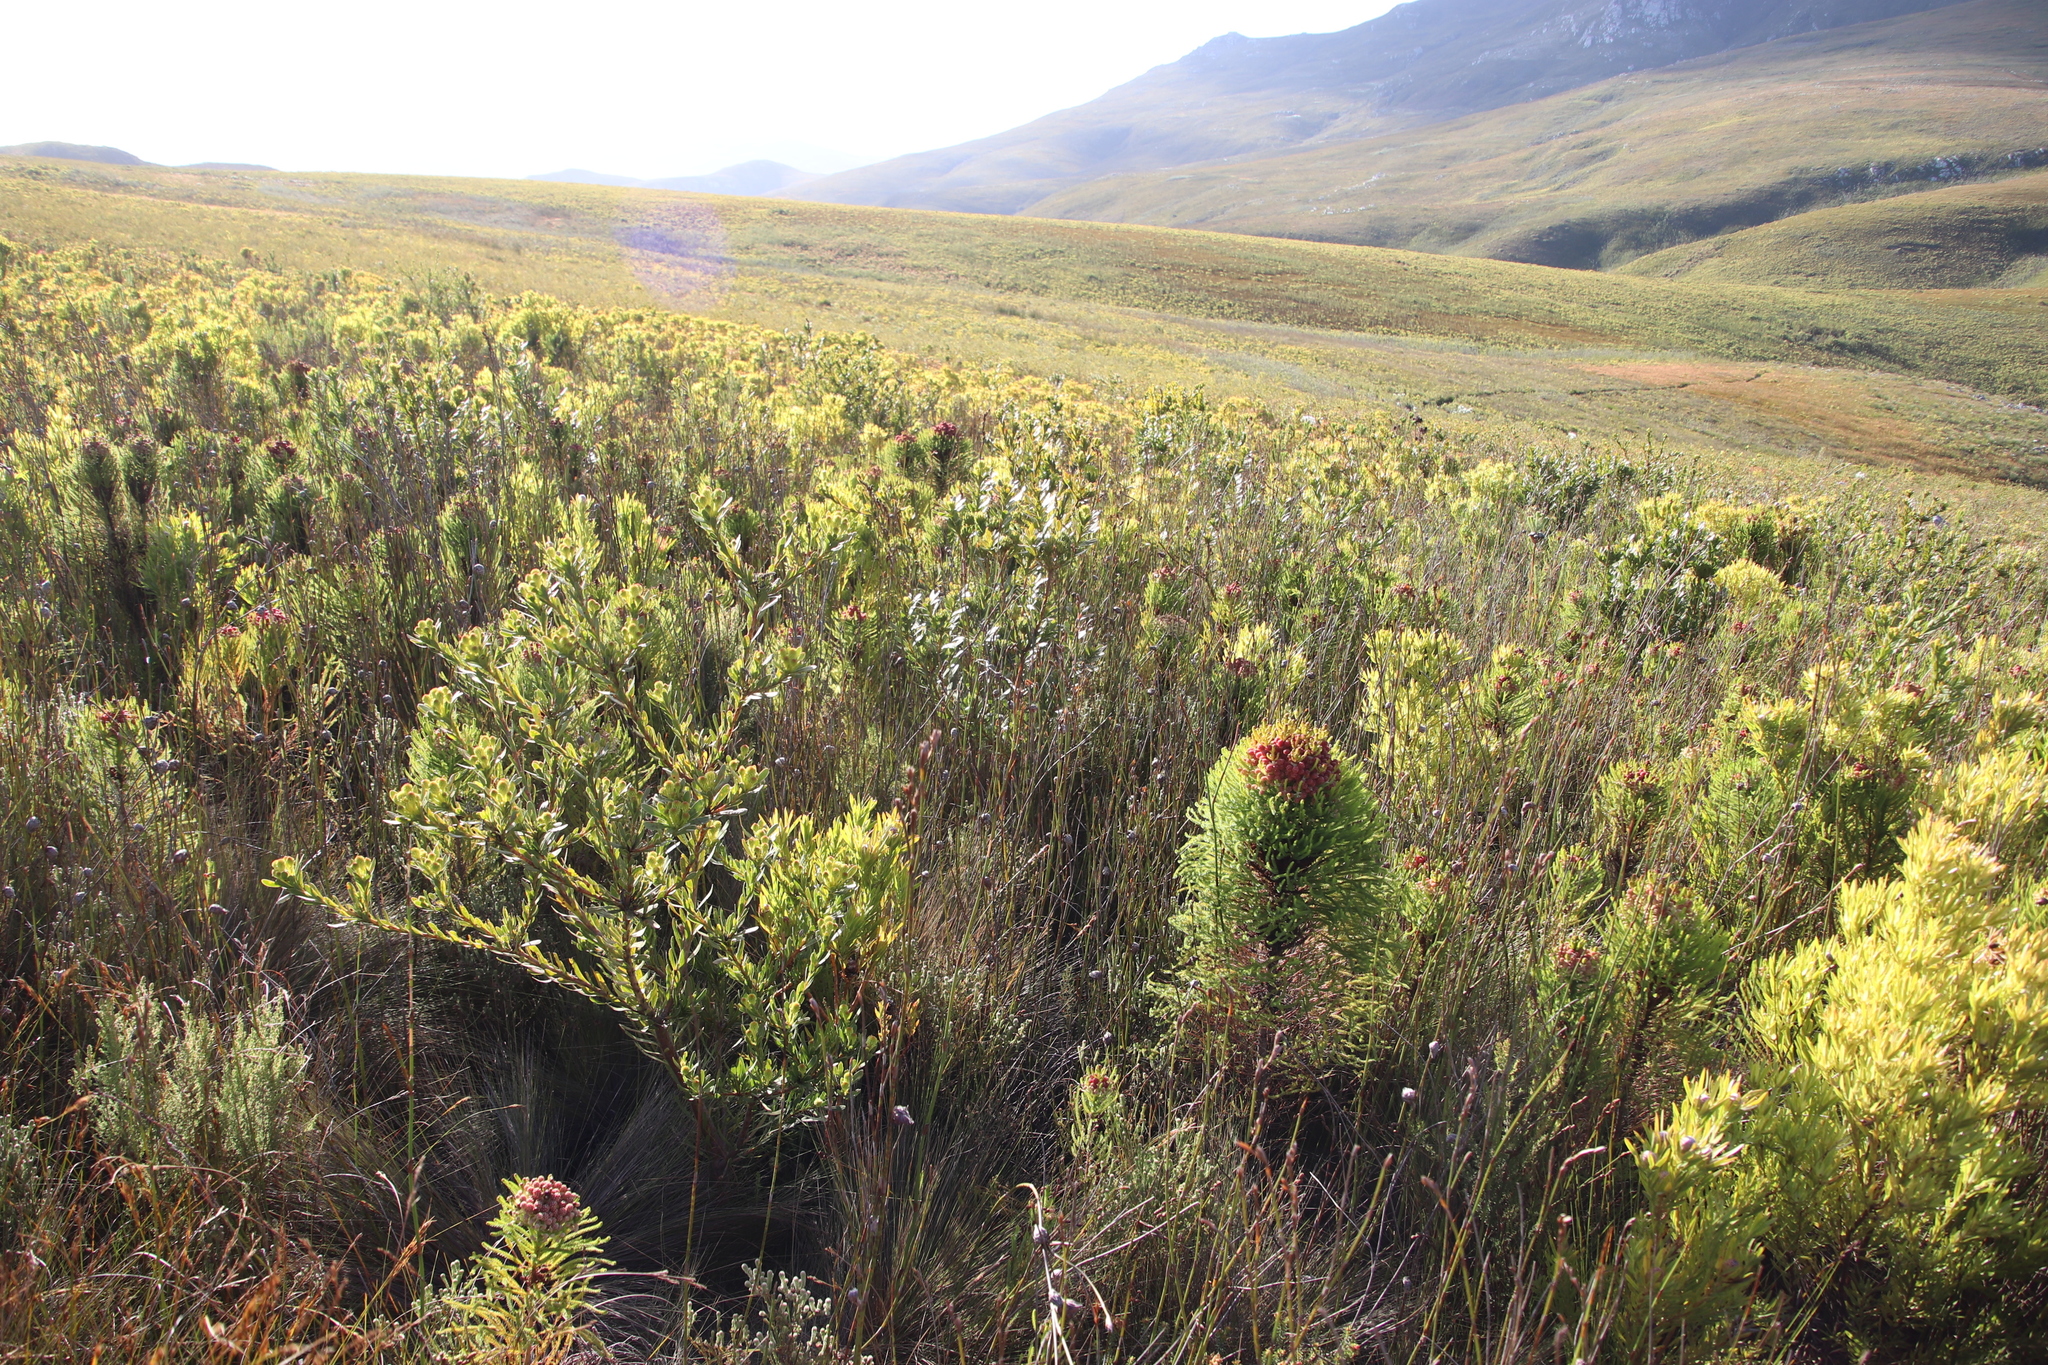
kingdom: Plantae
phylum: Tracheophyta
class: Magnoliopsida
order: Proteales
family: Proteaceae
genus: Leucadendron
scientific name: Leucadendron xanthoconus
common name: Sickle-leaf conebush
